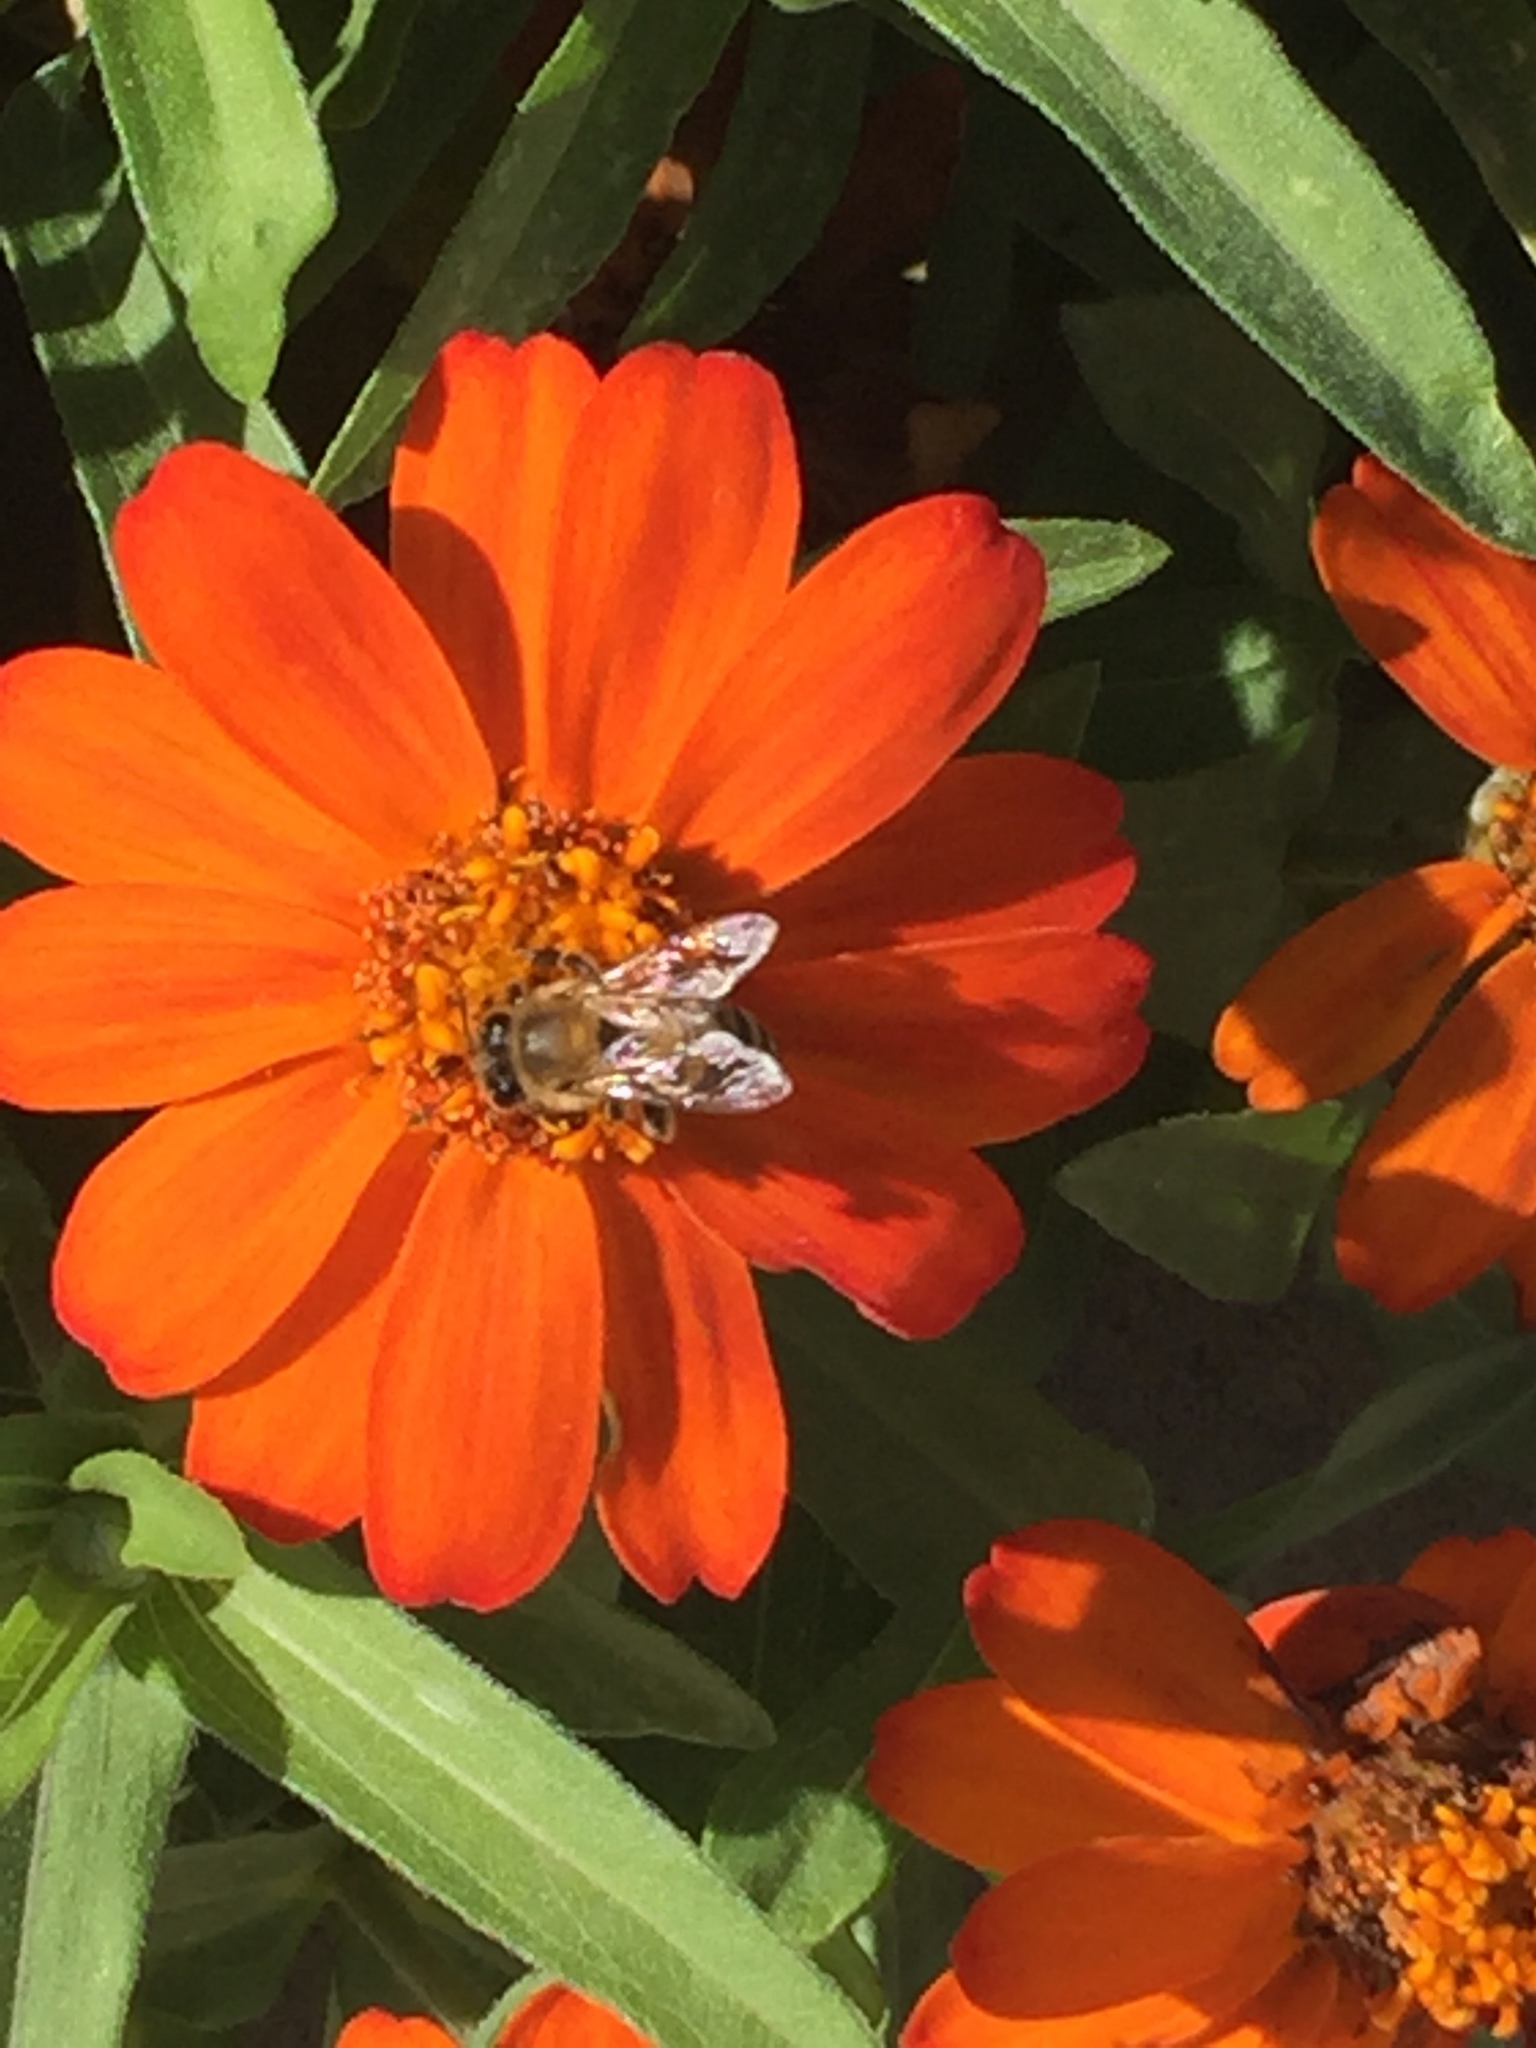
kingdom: Animalia
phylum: Arthropoda
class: Insecta
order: Hymenoptera
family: Apidae
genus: Apis
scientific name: Apis mellifera
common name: Honey bee
